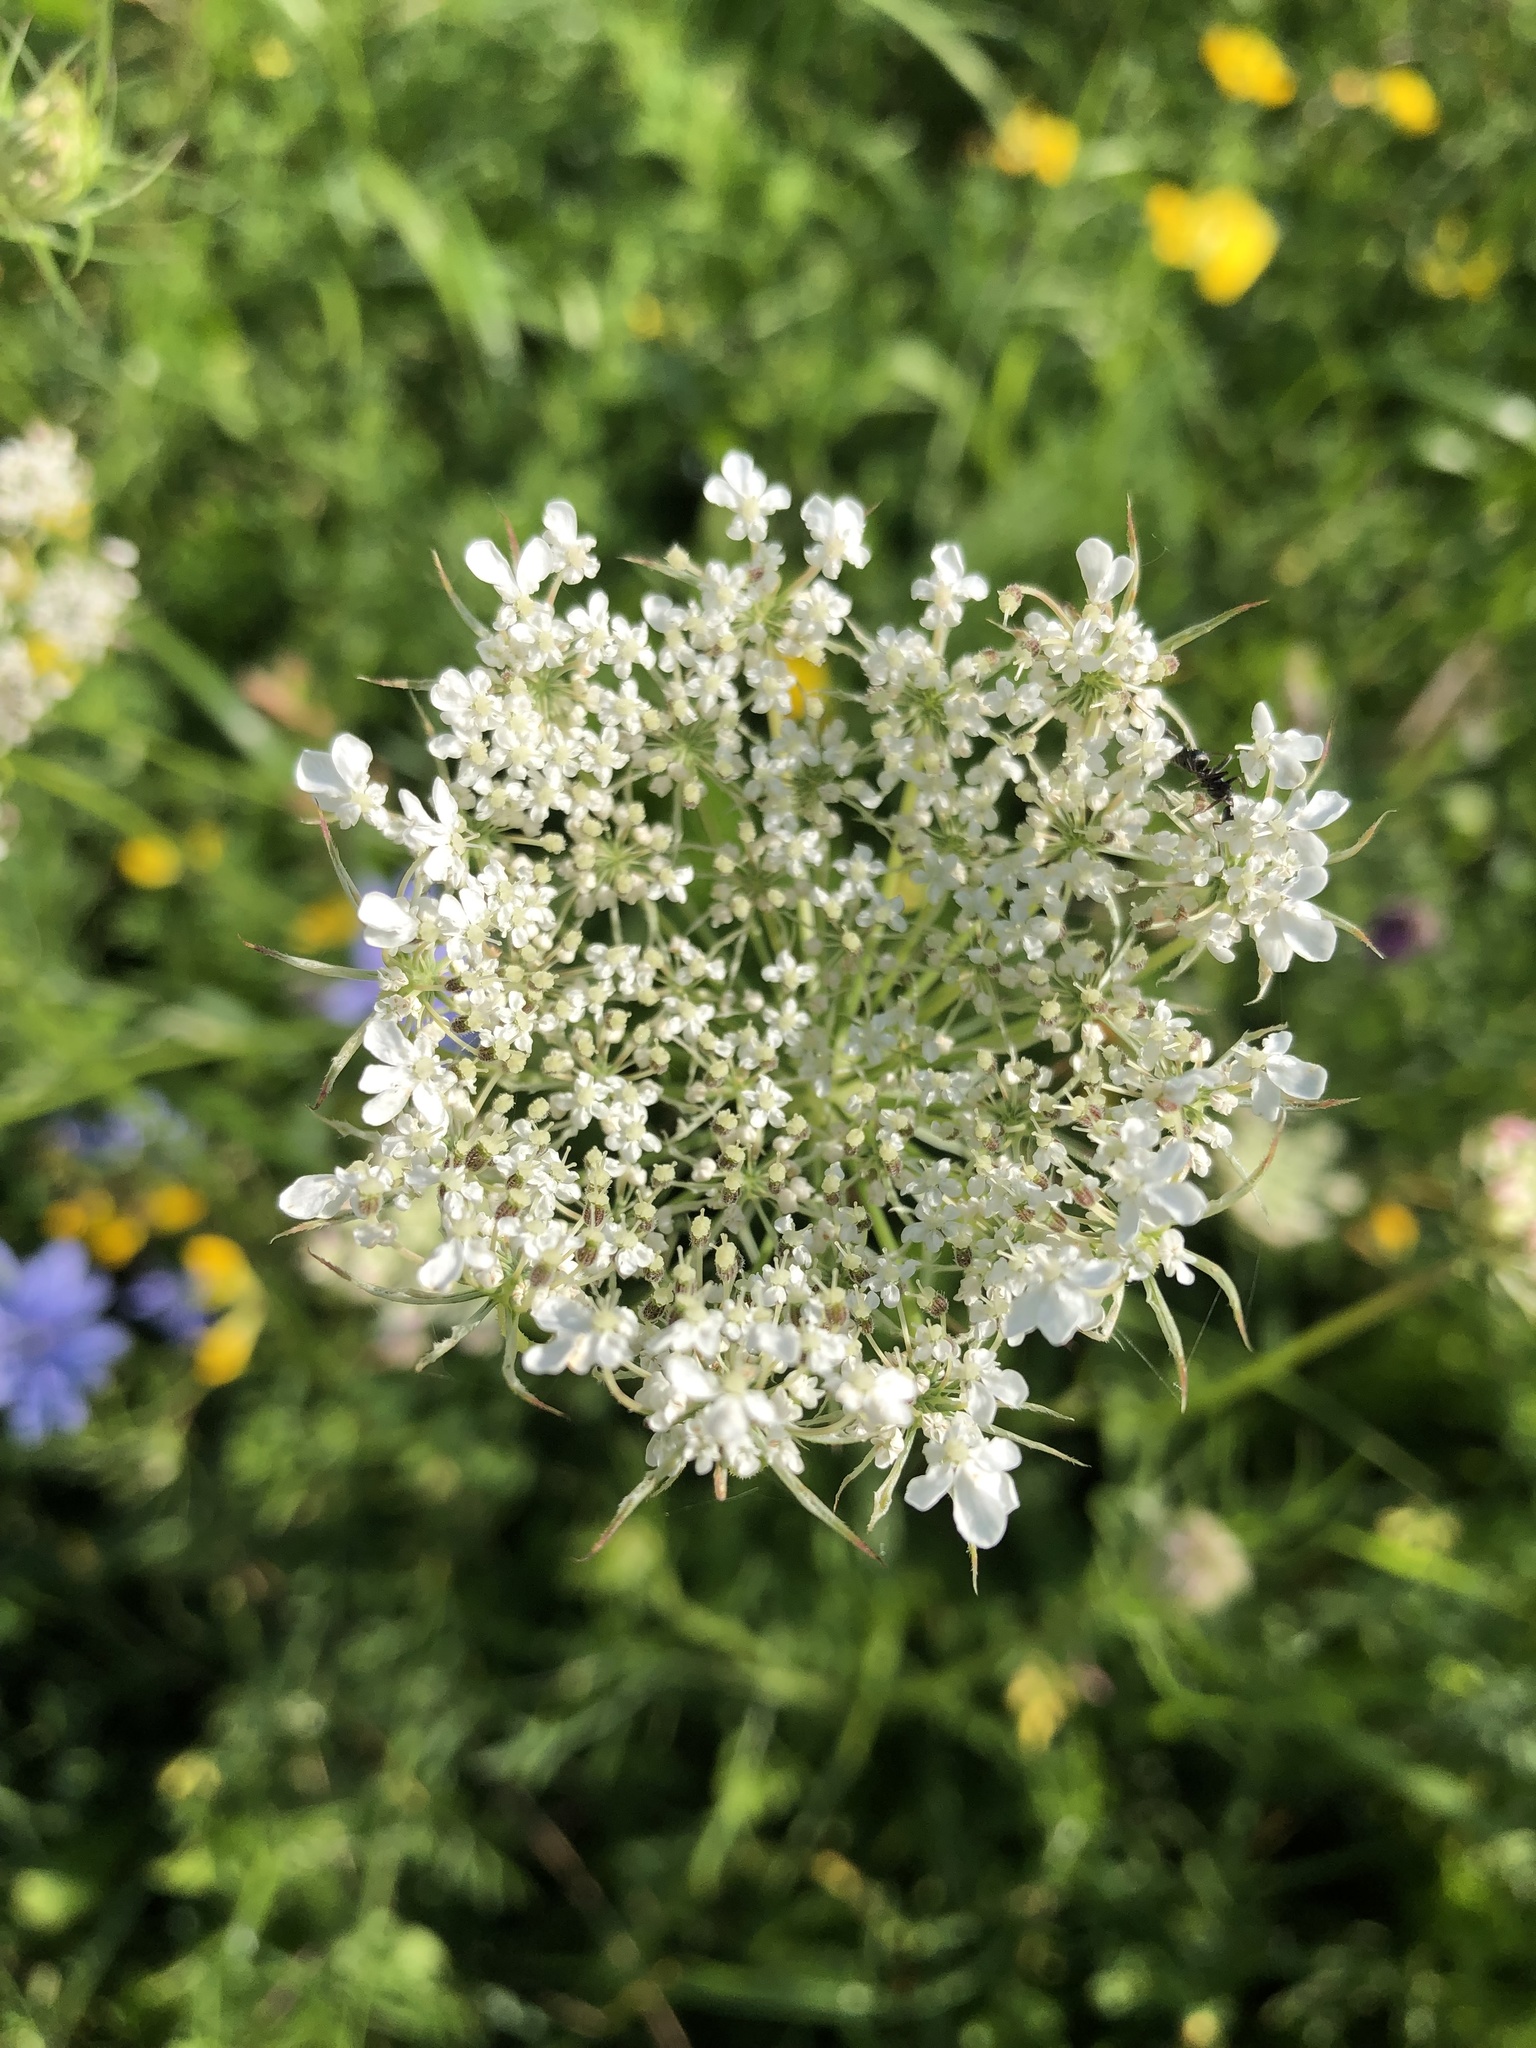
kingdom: Plantae
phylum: Tracheophyta
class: Magnoliopsida
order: Apiales
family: Apiaceae
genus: Daucus
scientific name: Daucus carota
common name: Wild carrot
